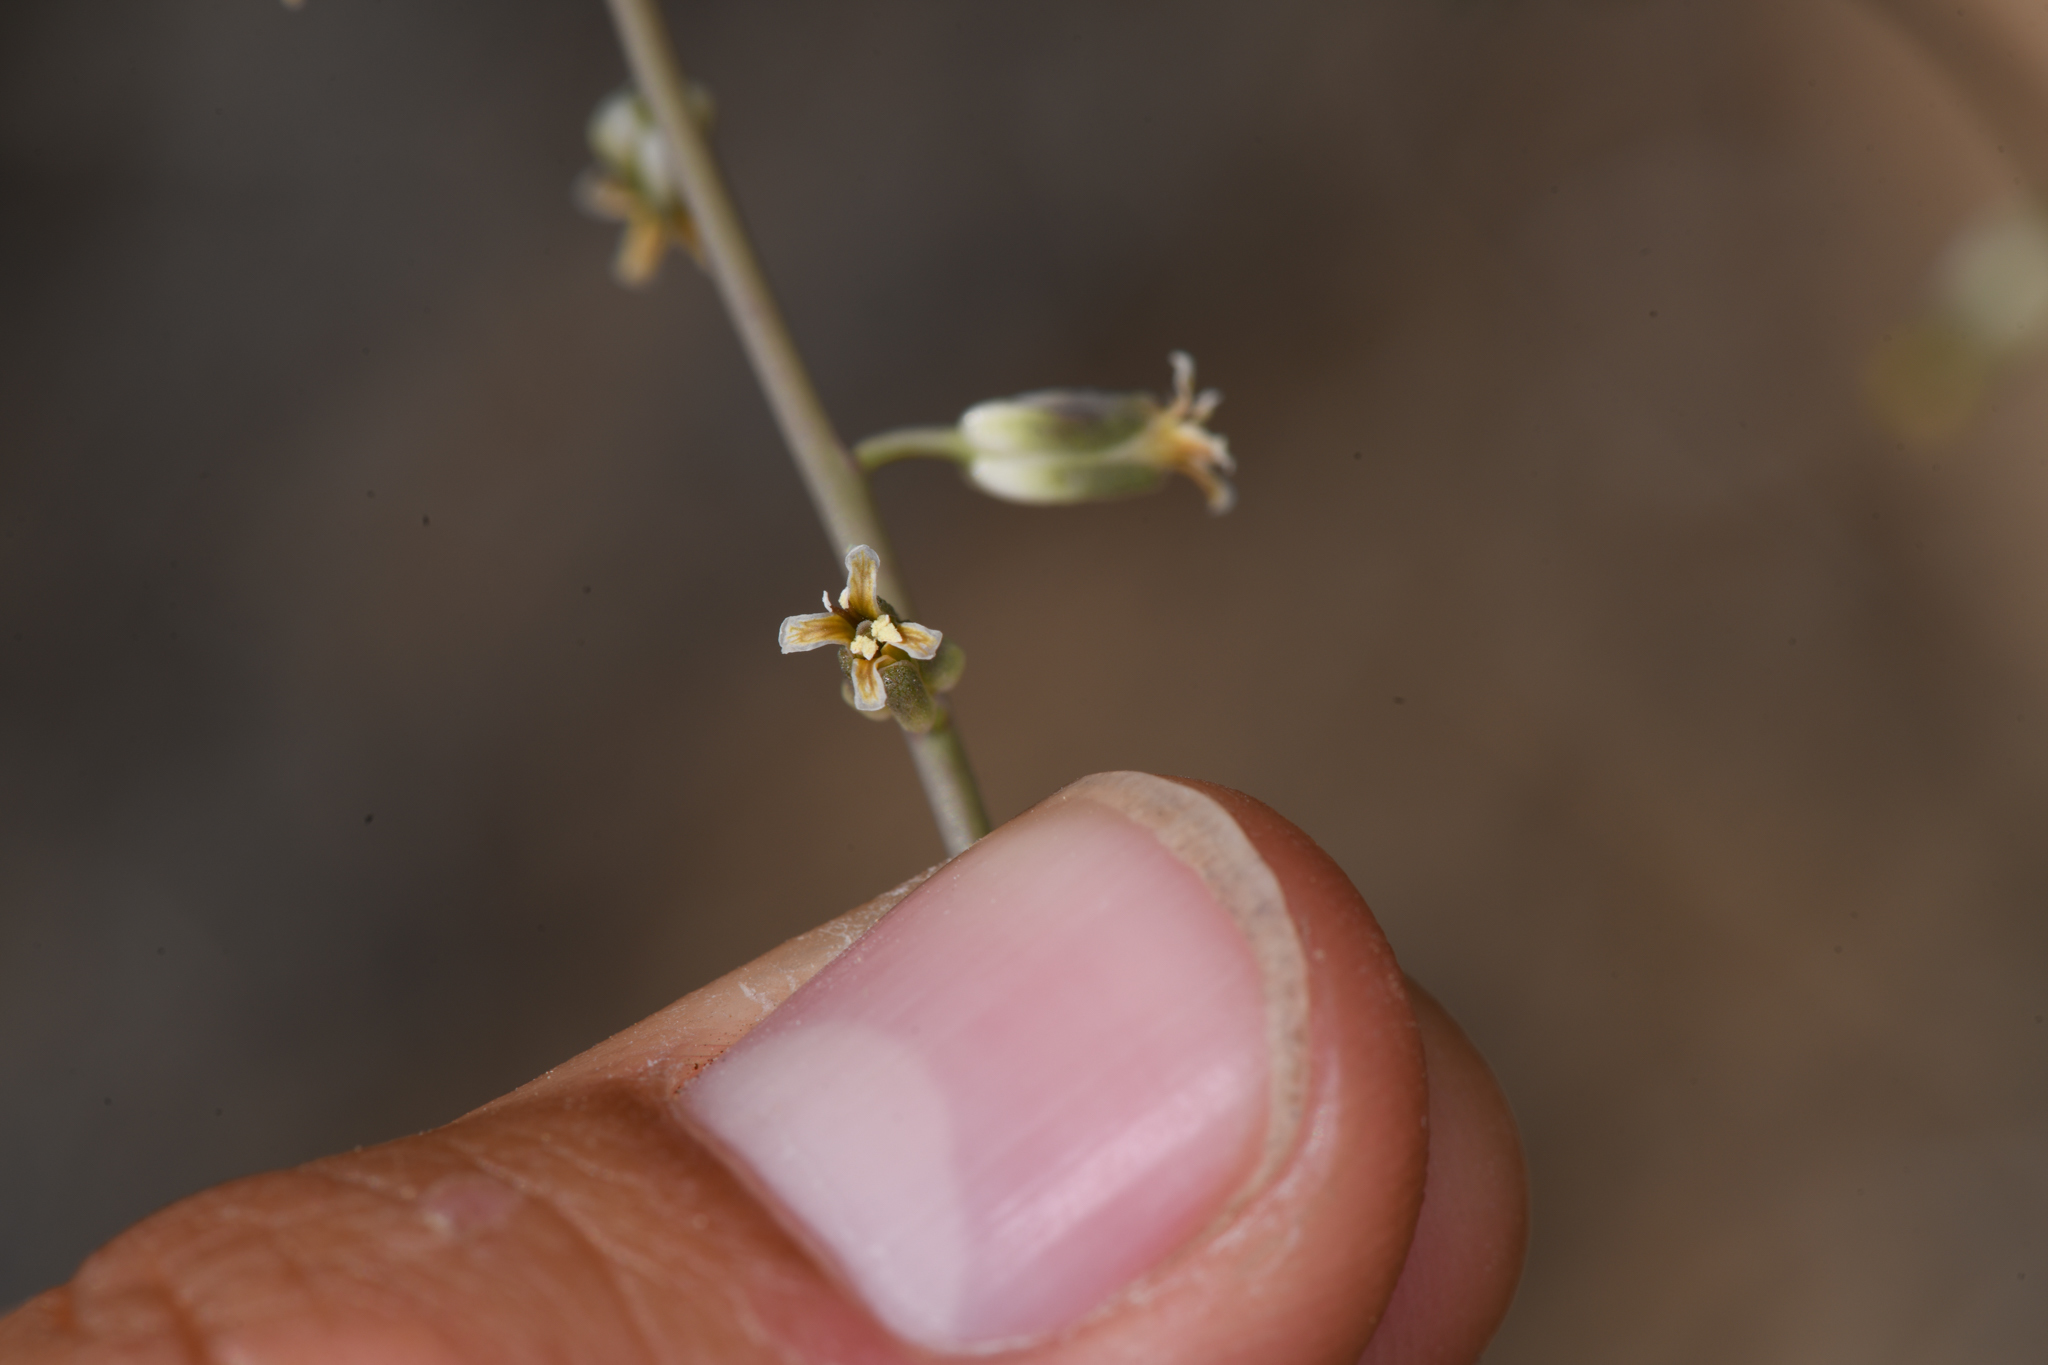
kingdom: Plantae
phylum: Tracheophyta
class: Magnoliopsida
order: Brassicales
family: Brassicaceae
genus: Streptanthus
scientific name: Streptanthus longirostris
